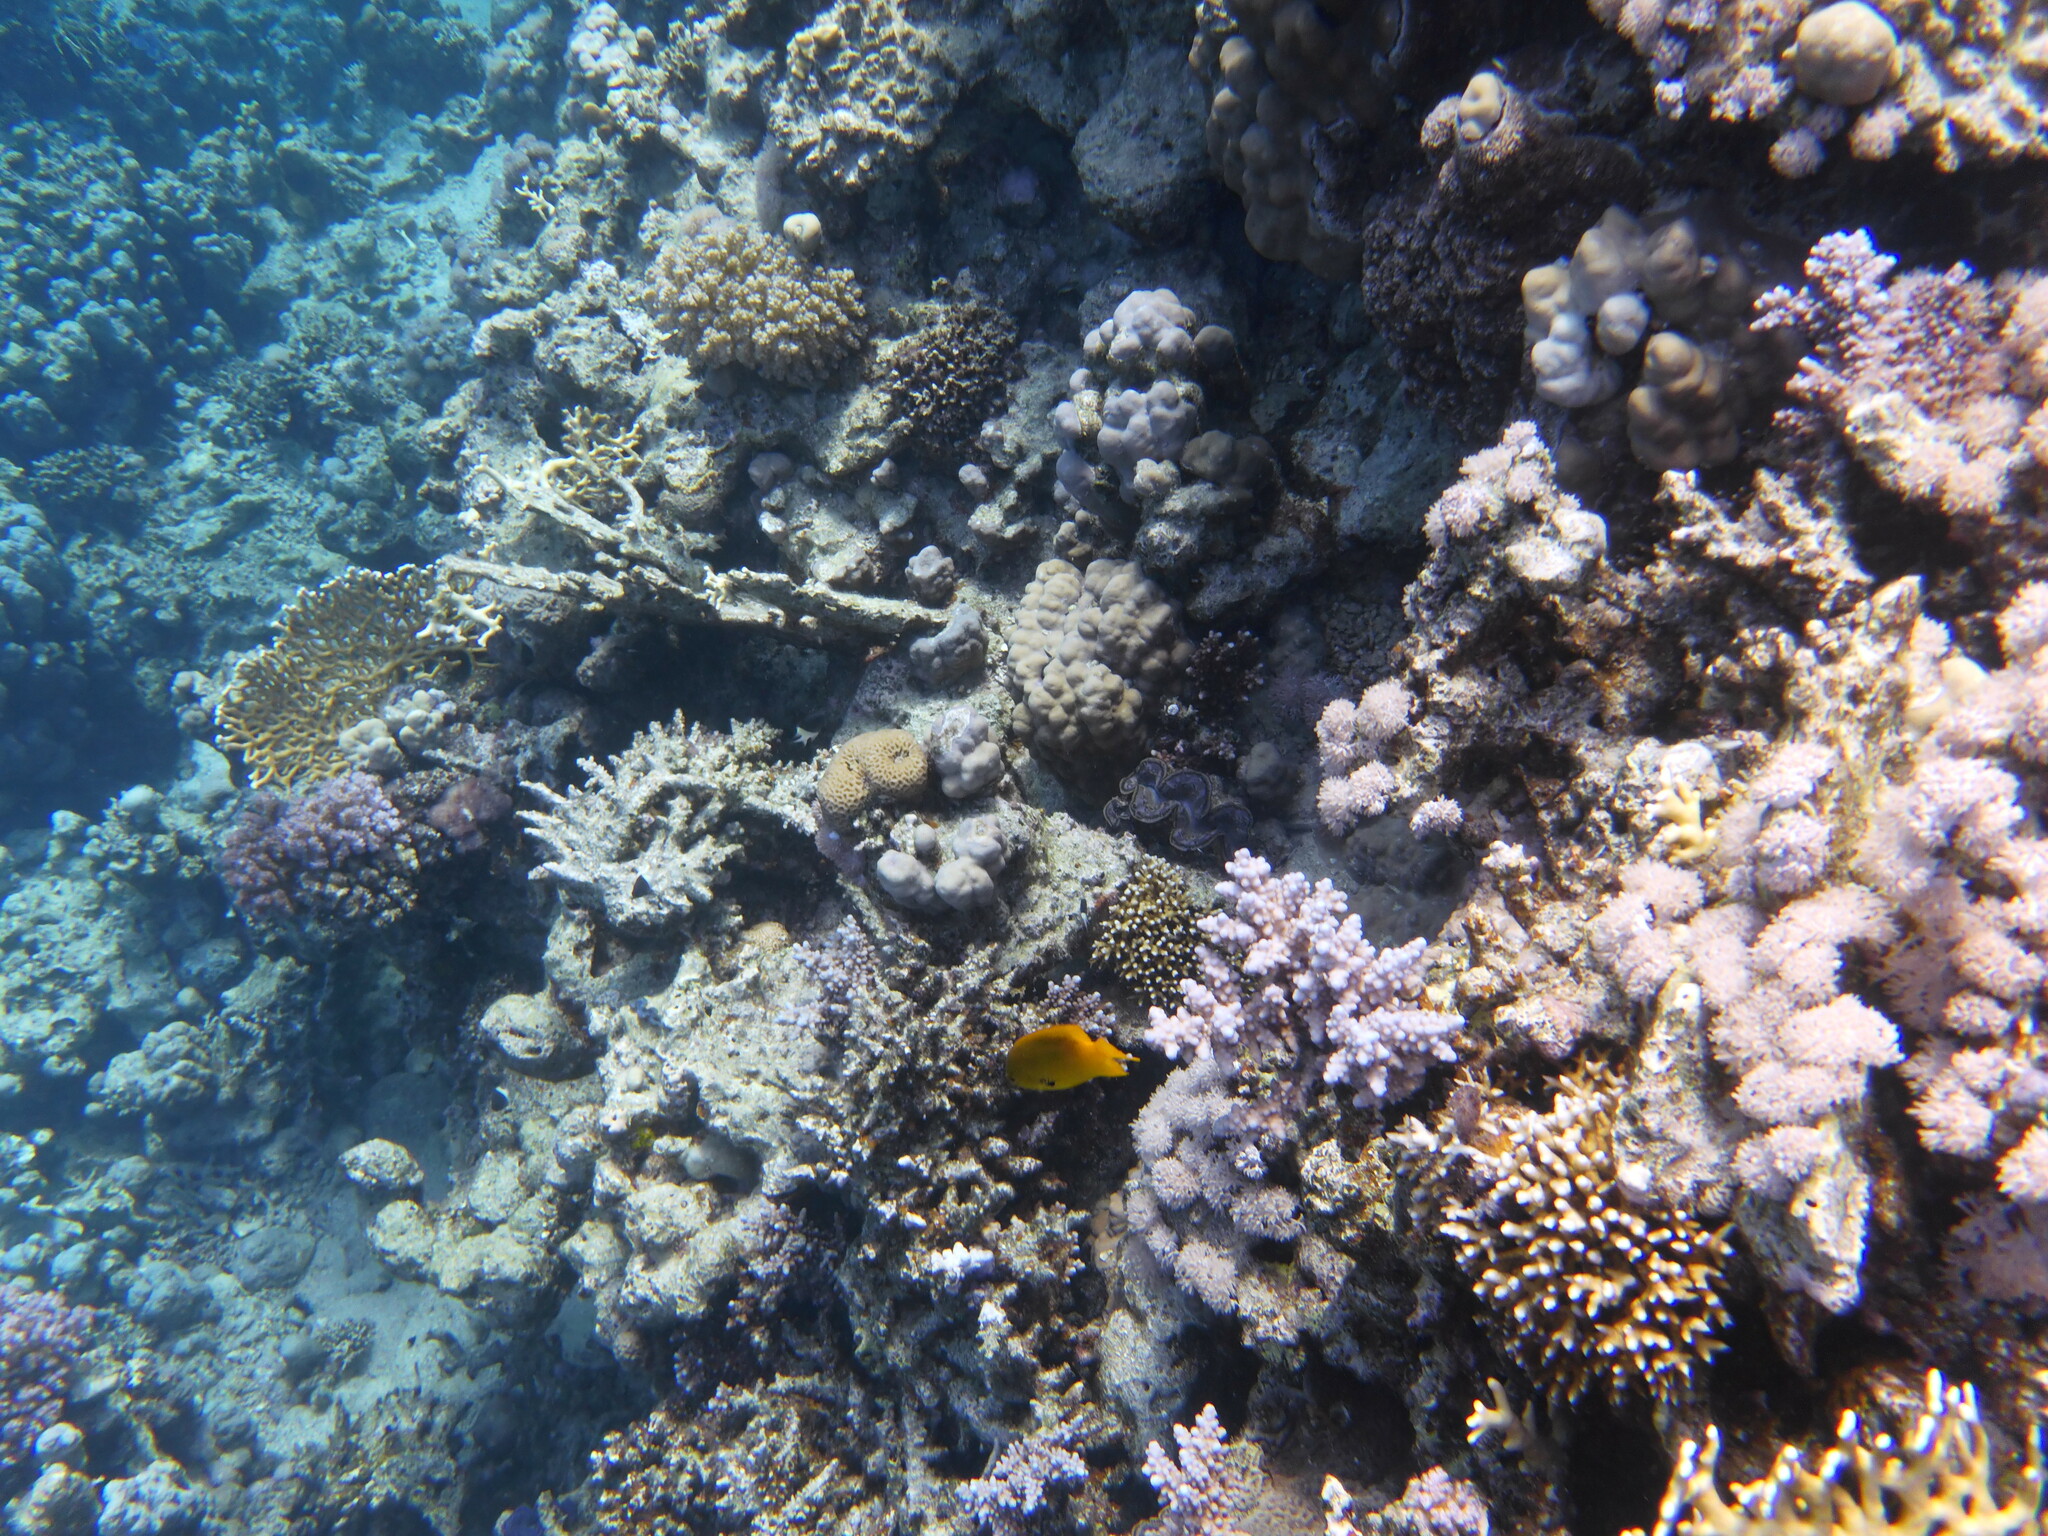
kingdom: Animalia
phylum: Chordata
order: Perciformes
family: Pomacentridae
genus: Pomacentrus
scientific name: Pomacentrus sulfureus
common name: Sulfur damsel
